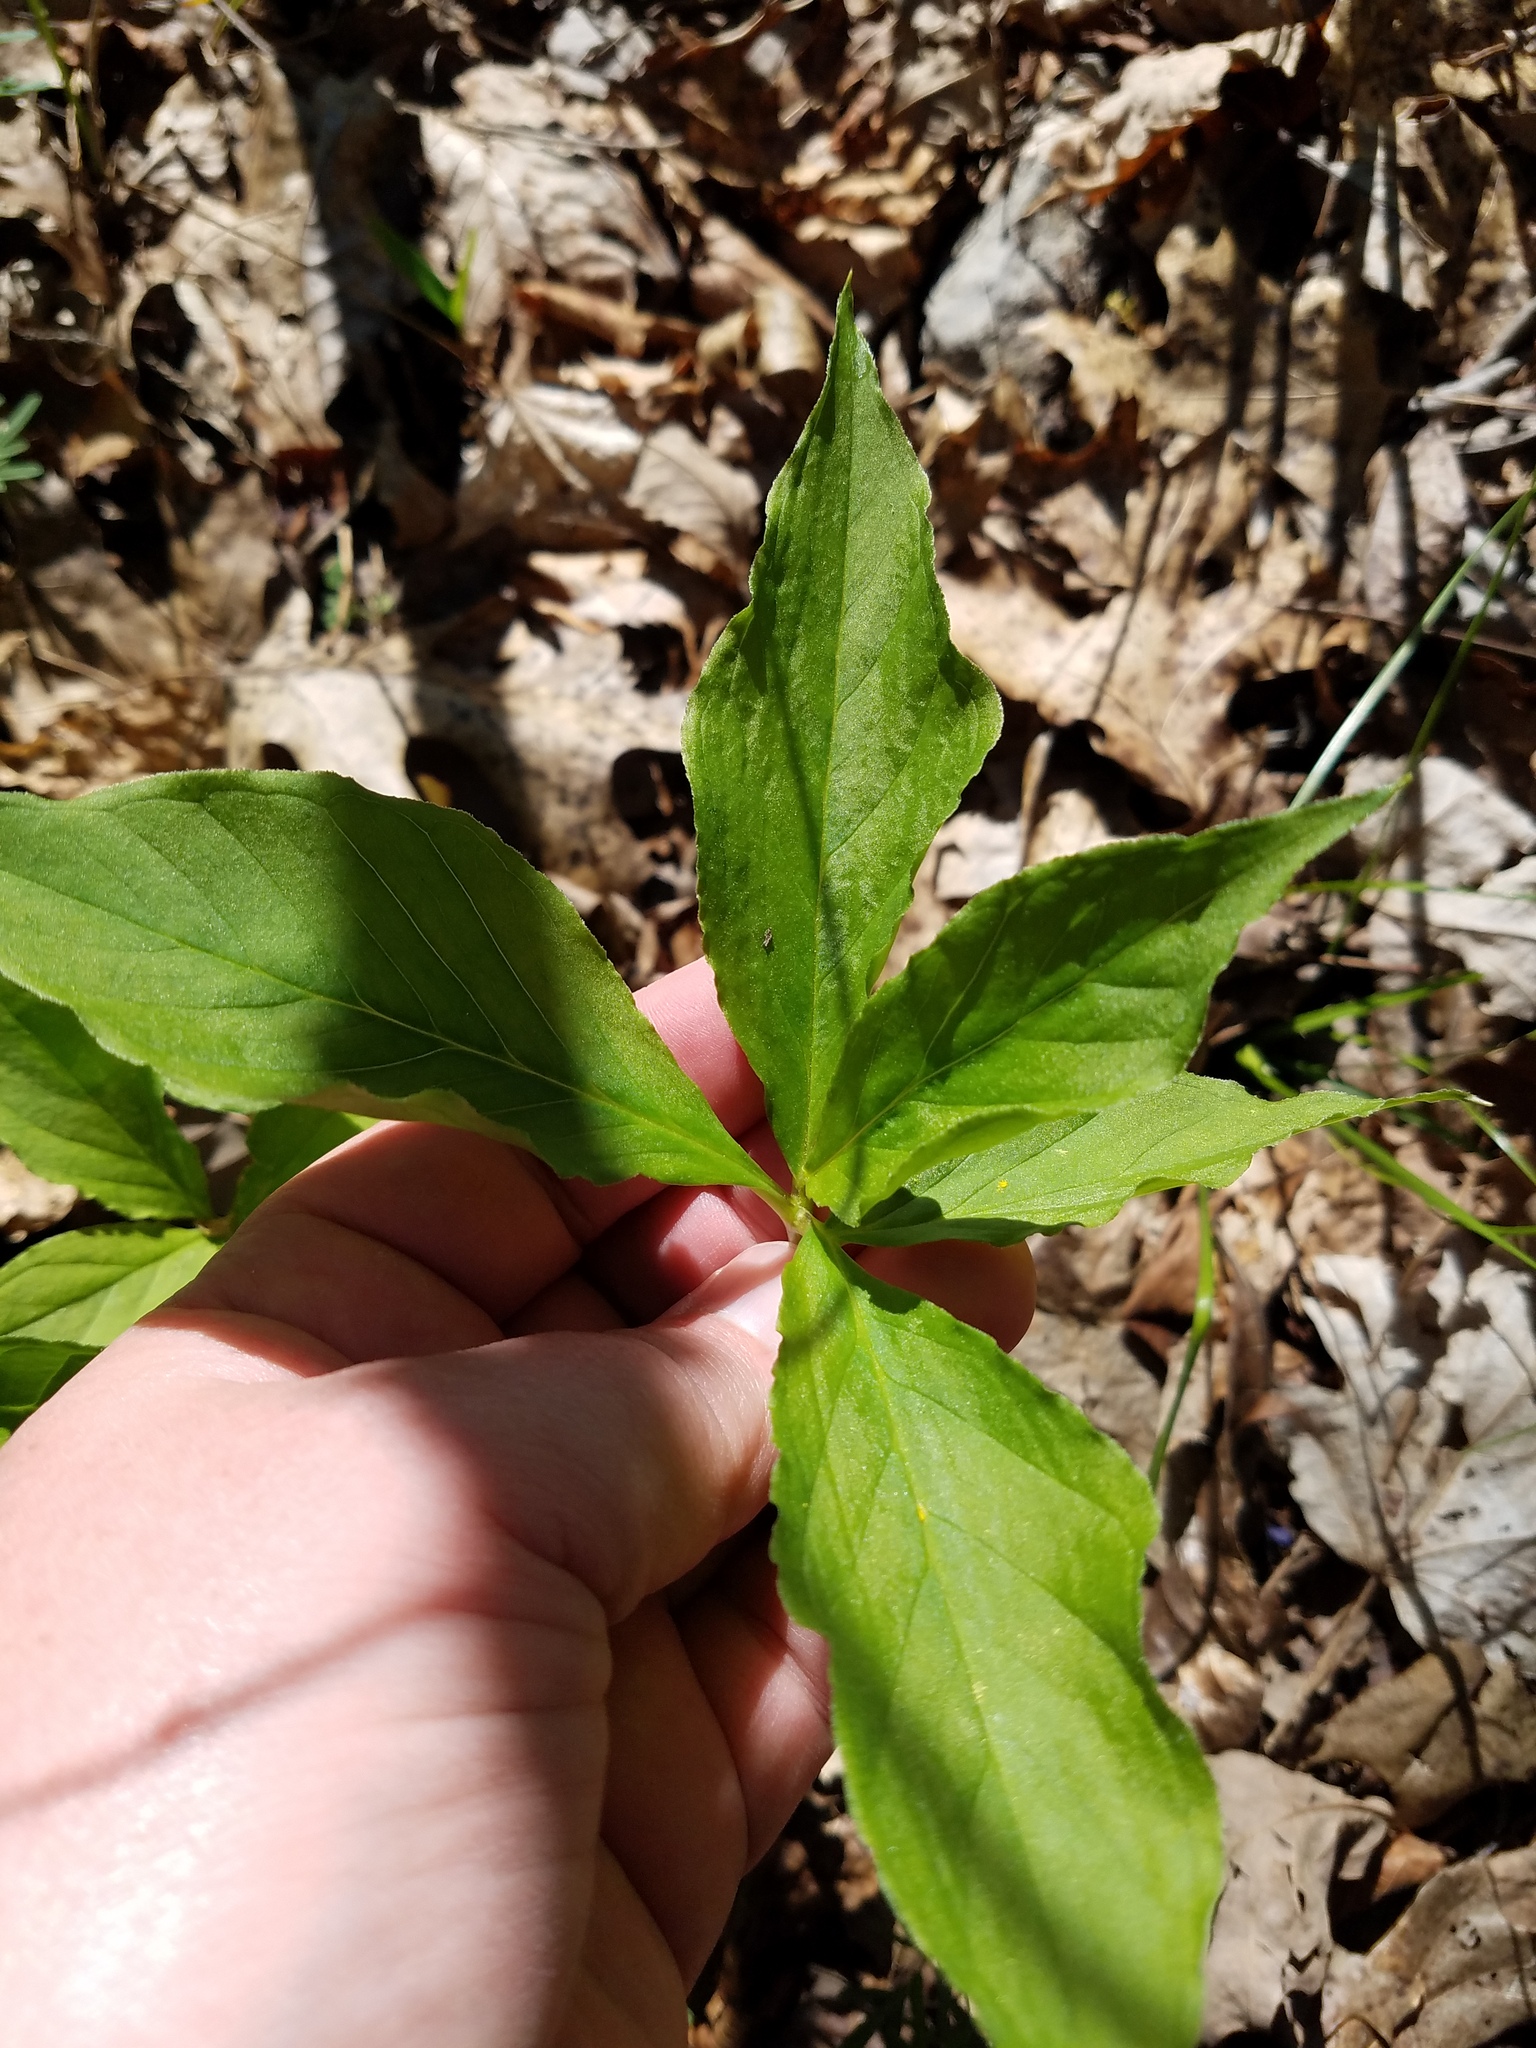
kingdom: Plantae
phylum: Tracheophyta
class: Liliopsida
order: Alismatales
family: Araceae
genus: Arisaema
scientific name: Arisaema quinatum
